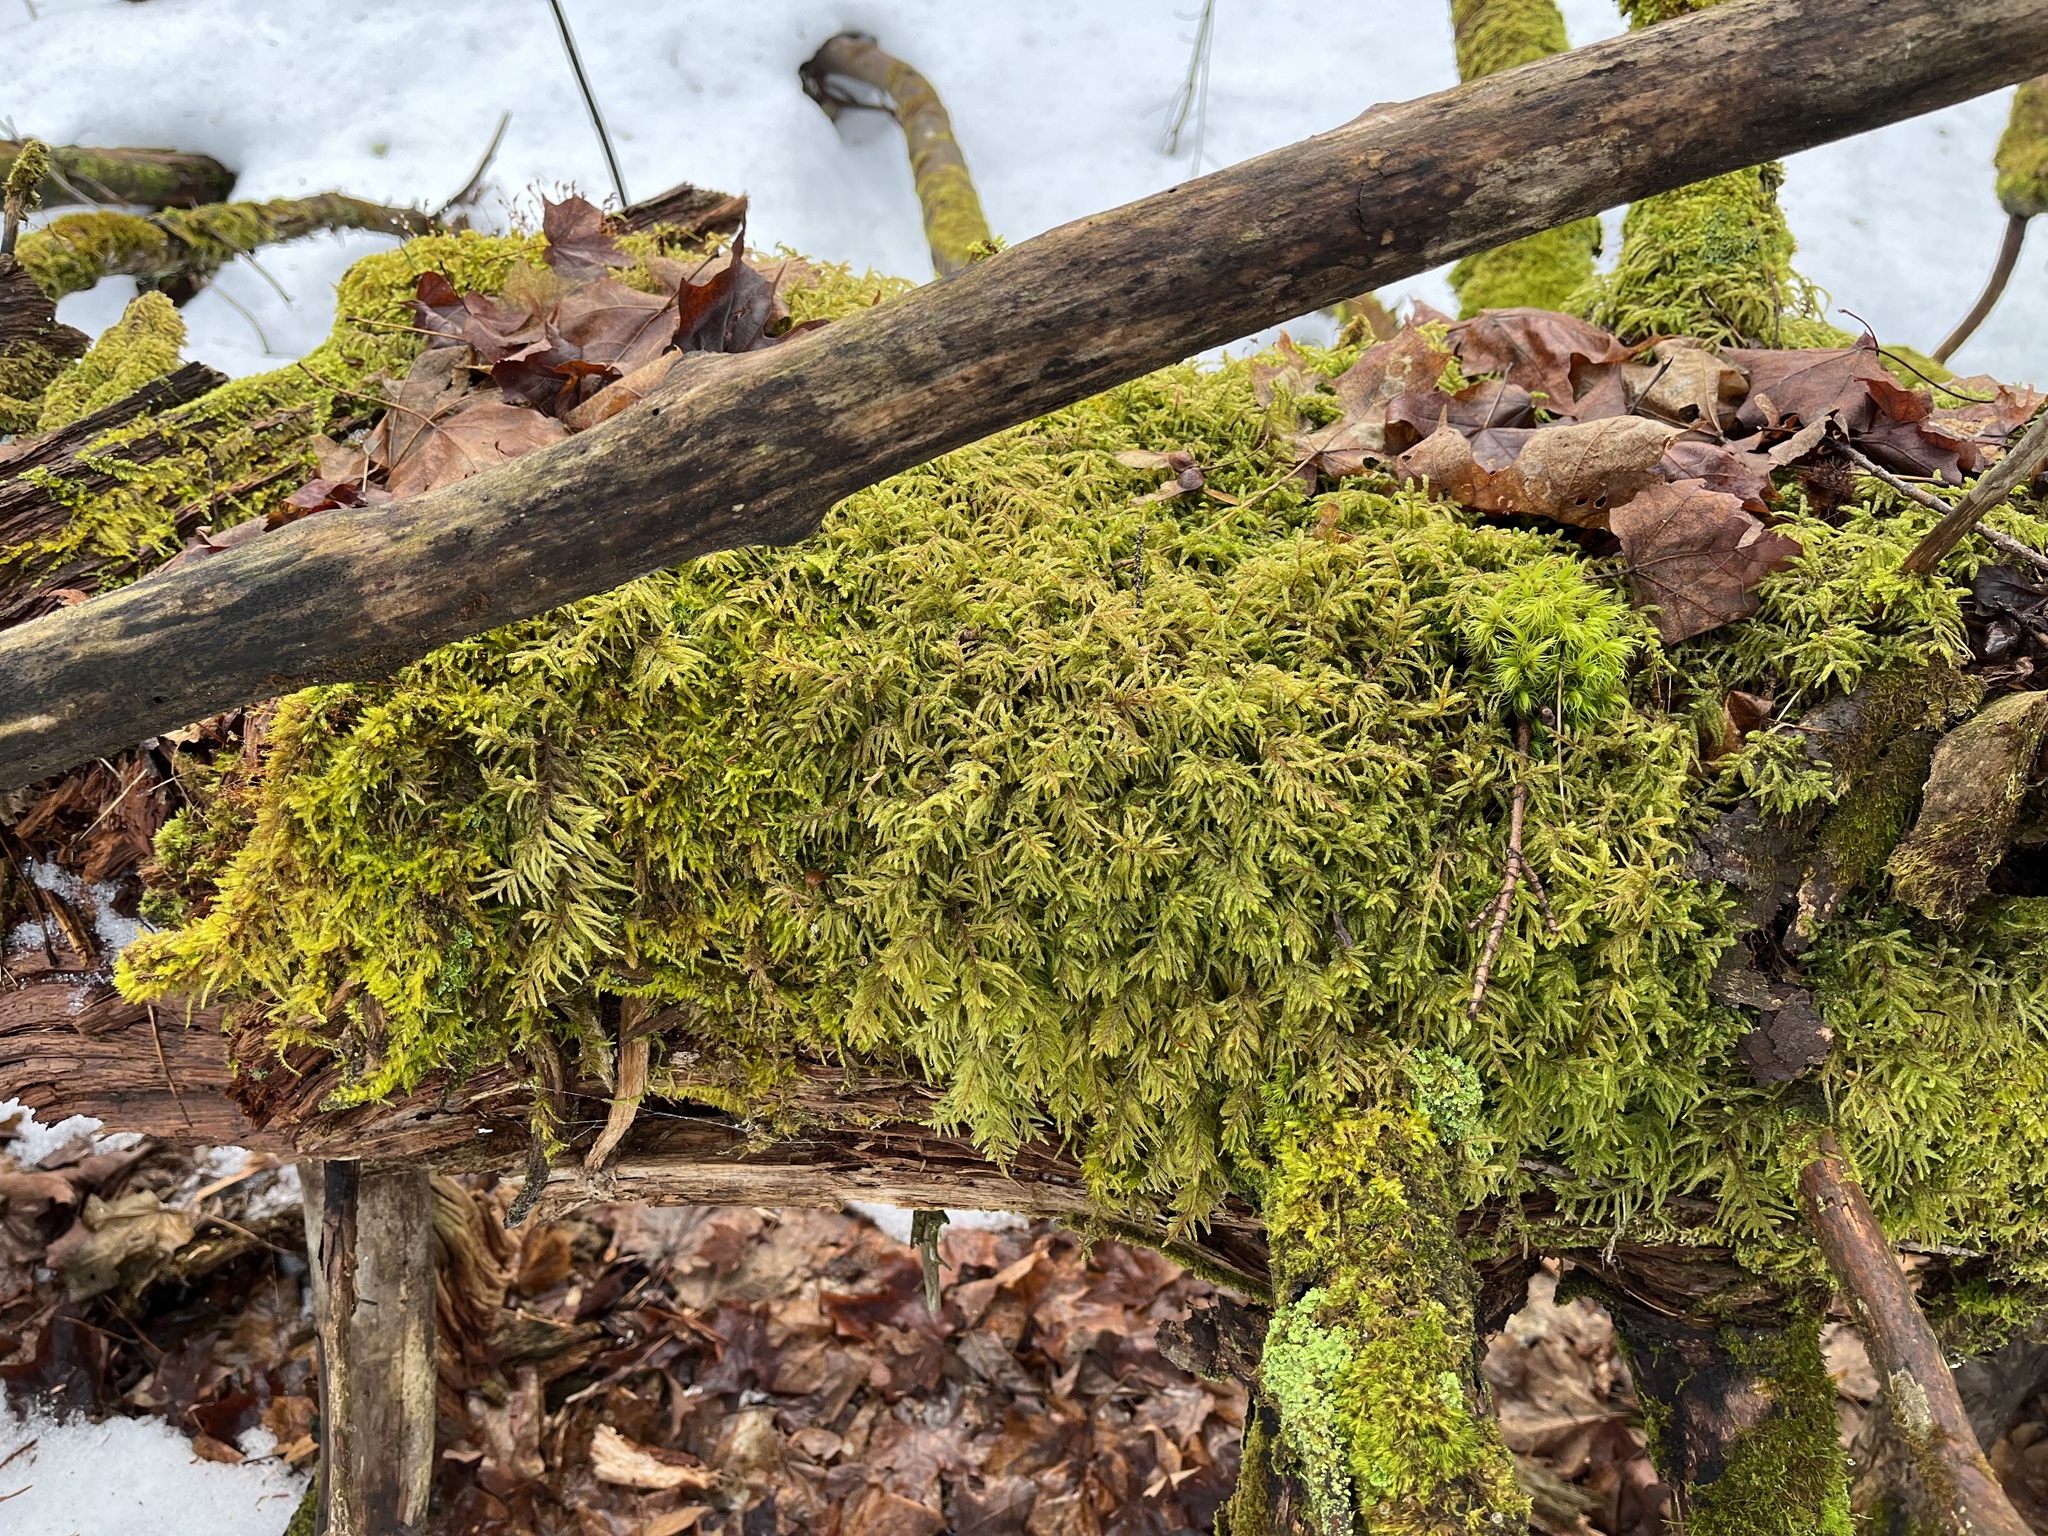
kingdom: Plantae
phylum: Bryophyta
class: Bryopsida
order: Hypnales
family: Hylocomiaceae
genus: Pleurozium
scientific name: Pleurozium schreberi
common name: Red-stemmed feather moss
